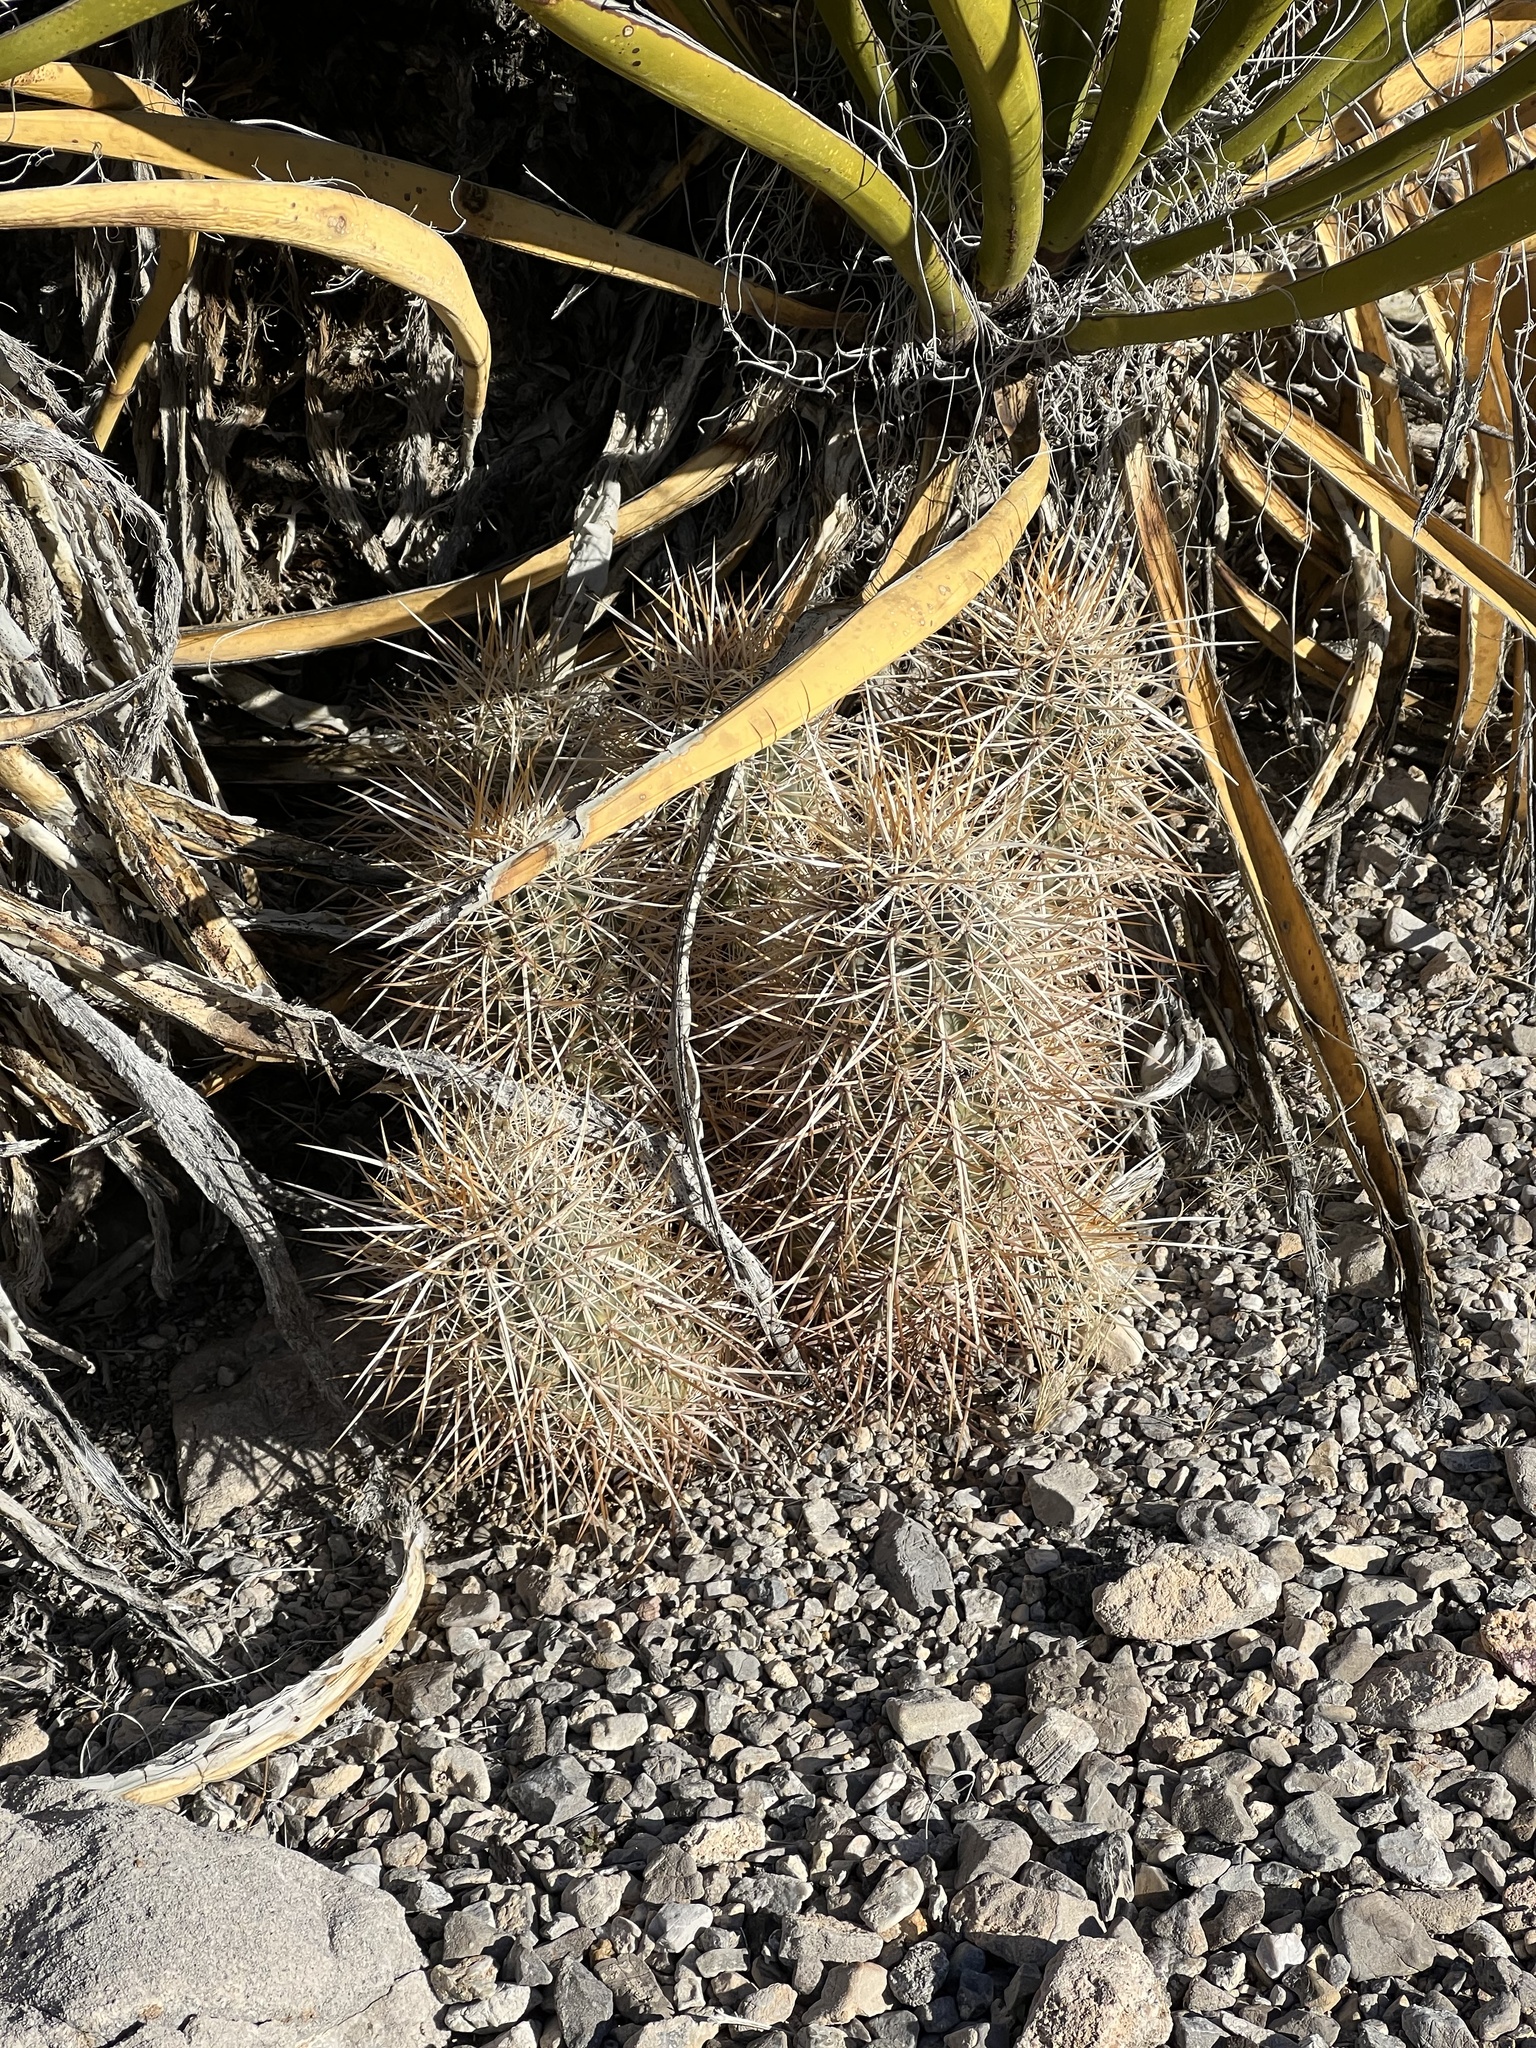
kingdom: Plantae
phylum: Tracheophyta
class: Magnoliopsida
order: Caryophyllales
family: Cactaceae
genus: Echinocereus
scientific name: Echinocereus engelmannii
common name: Engelmann's hedgehog cactus
